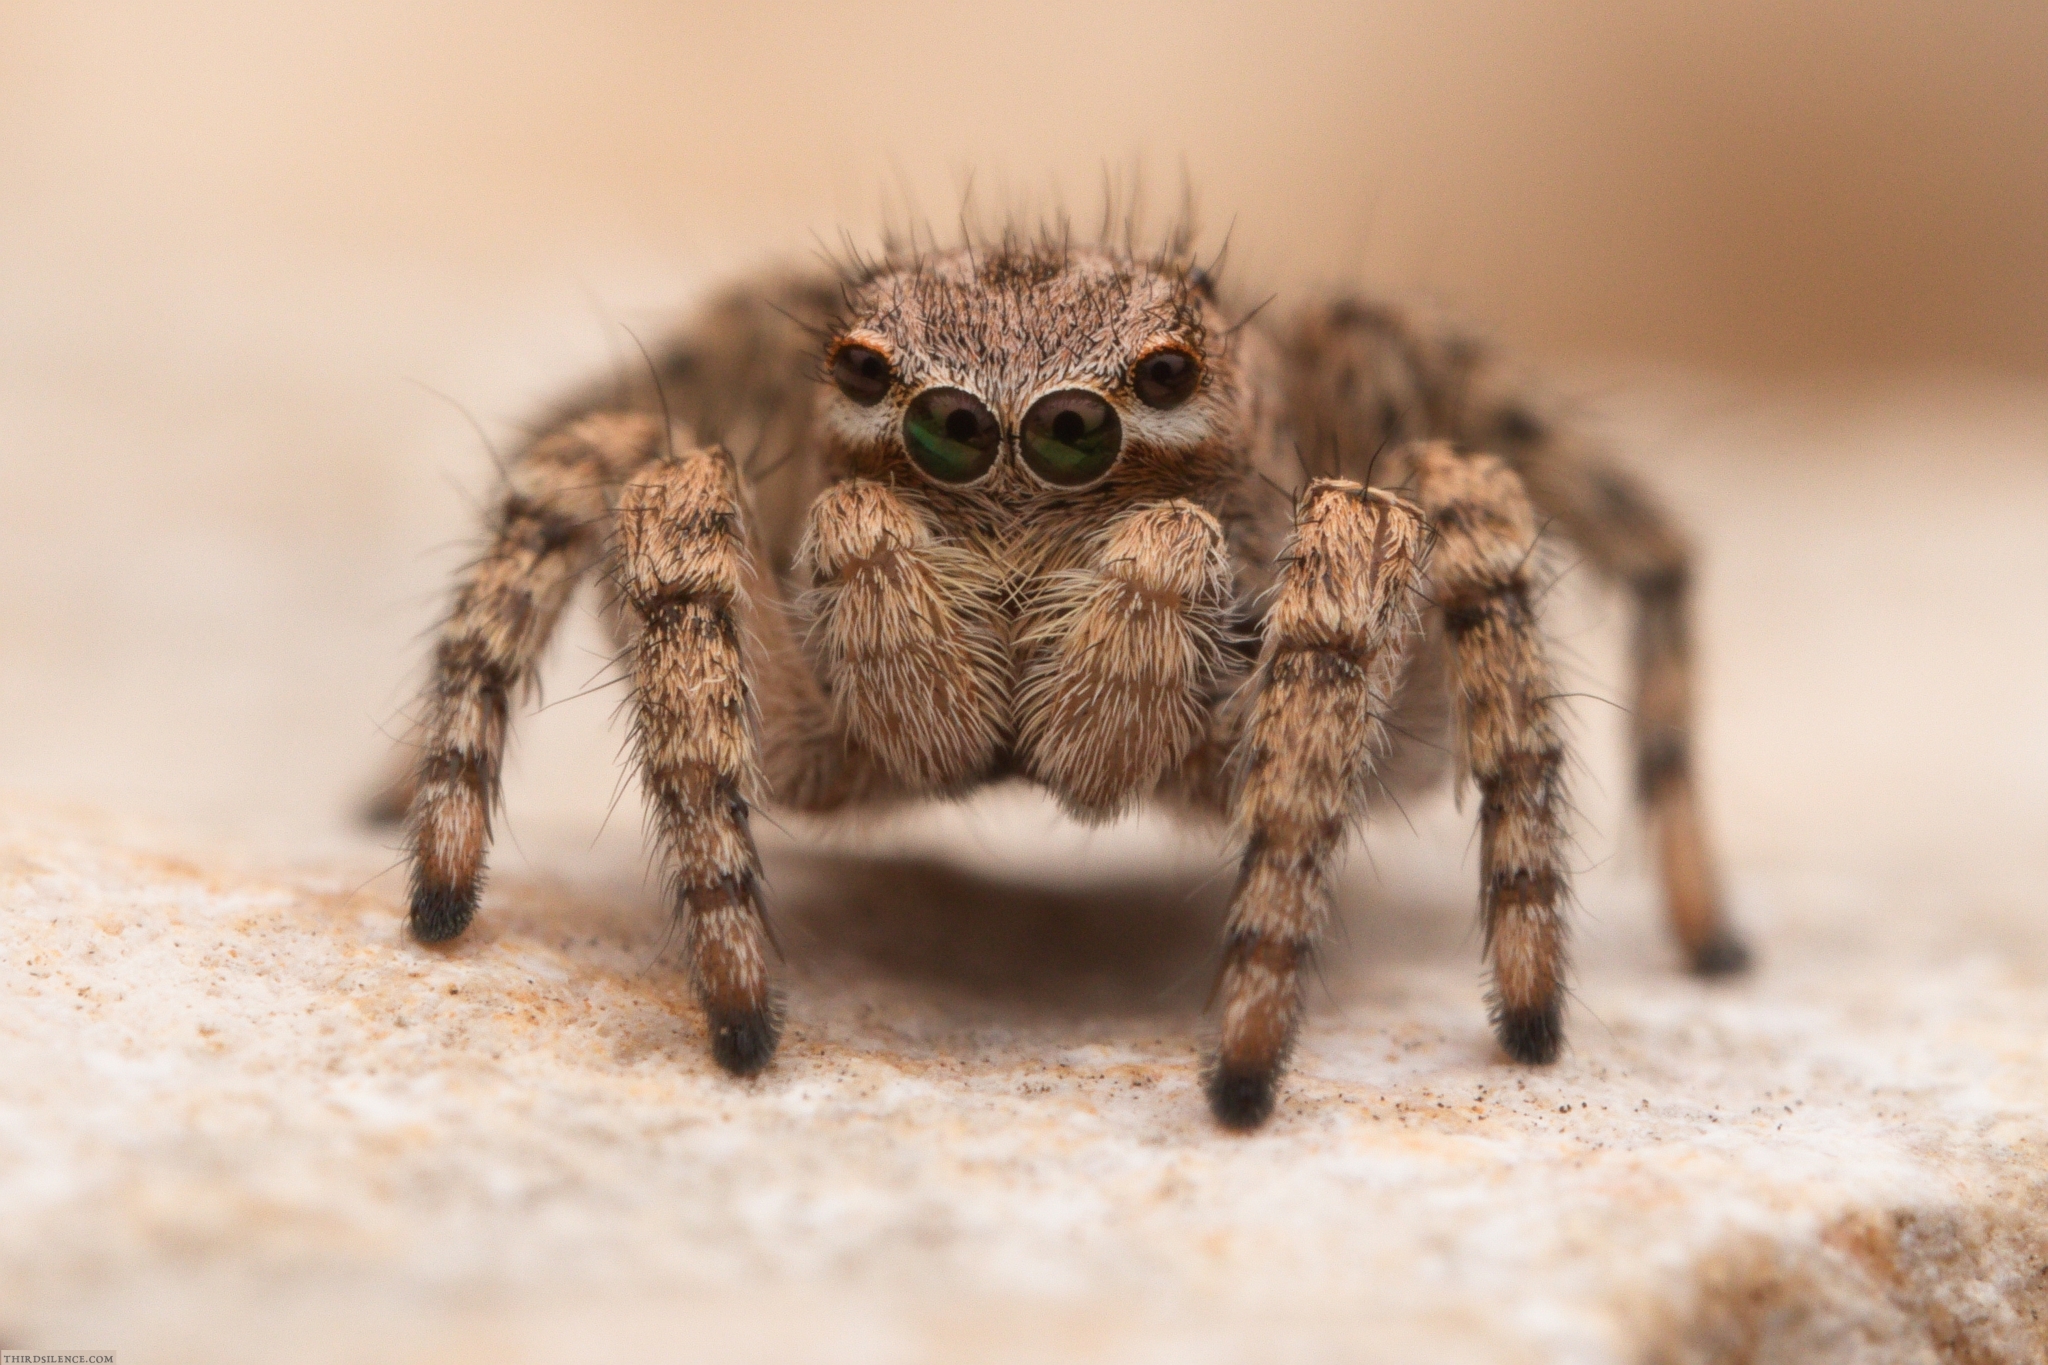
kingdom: Animalia
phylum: Arthropoda
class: Arachnida
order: Araneae
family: Salticidae
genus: Aelurillus
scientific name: Aelurillus v-insignitus
